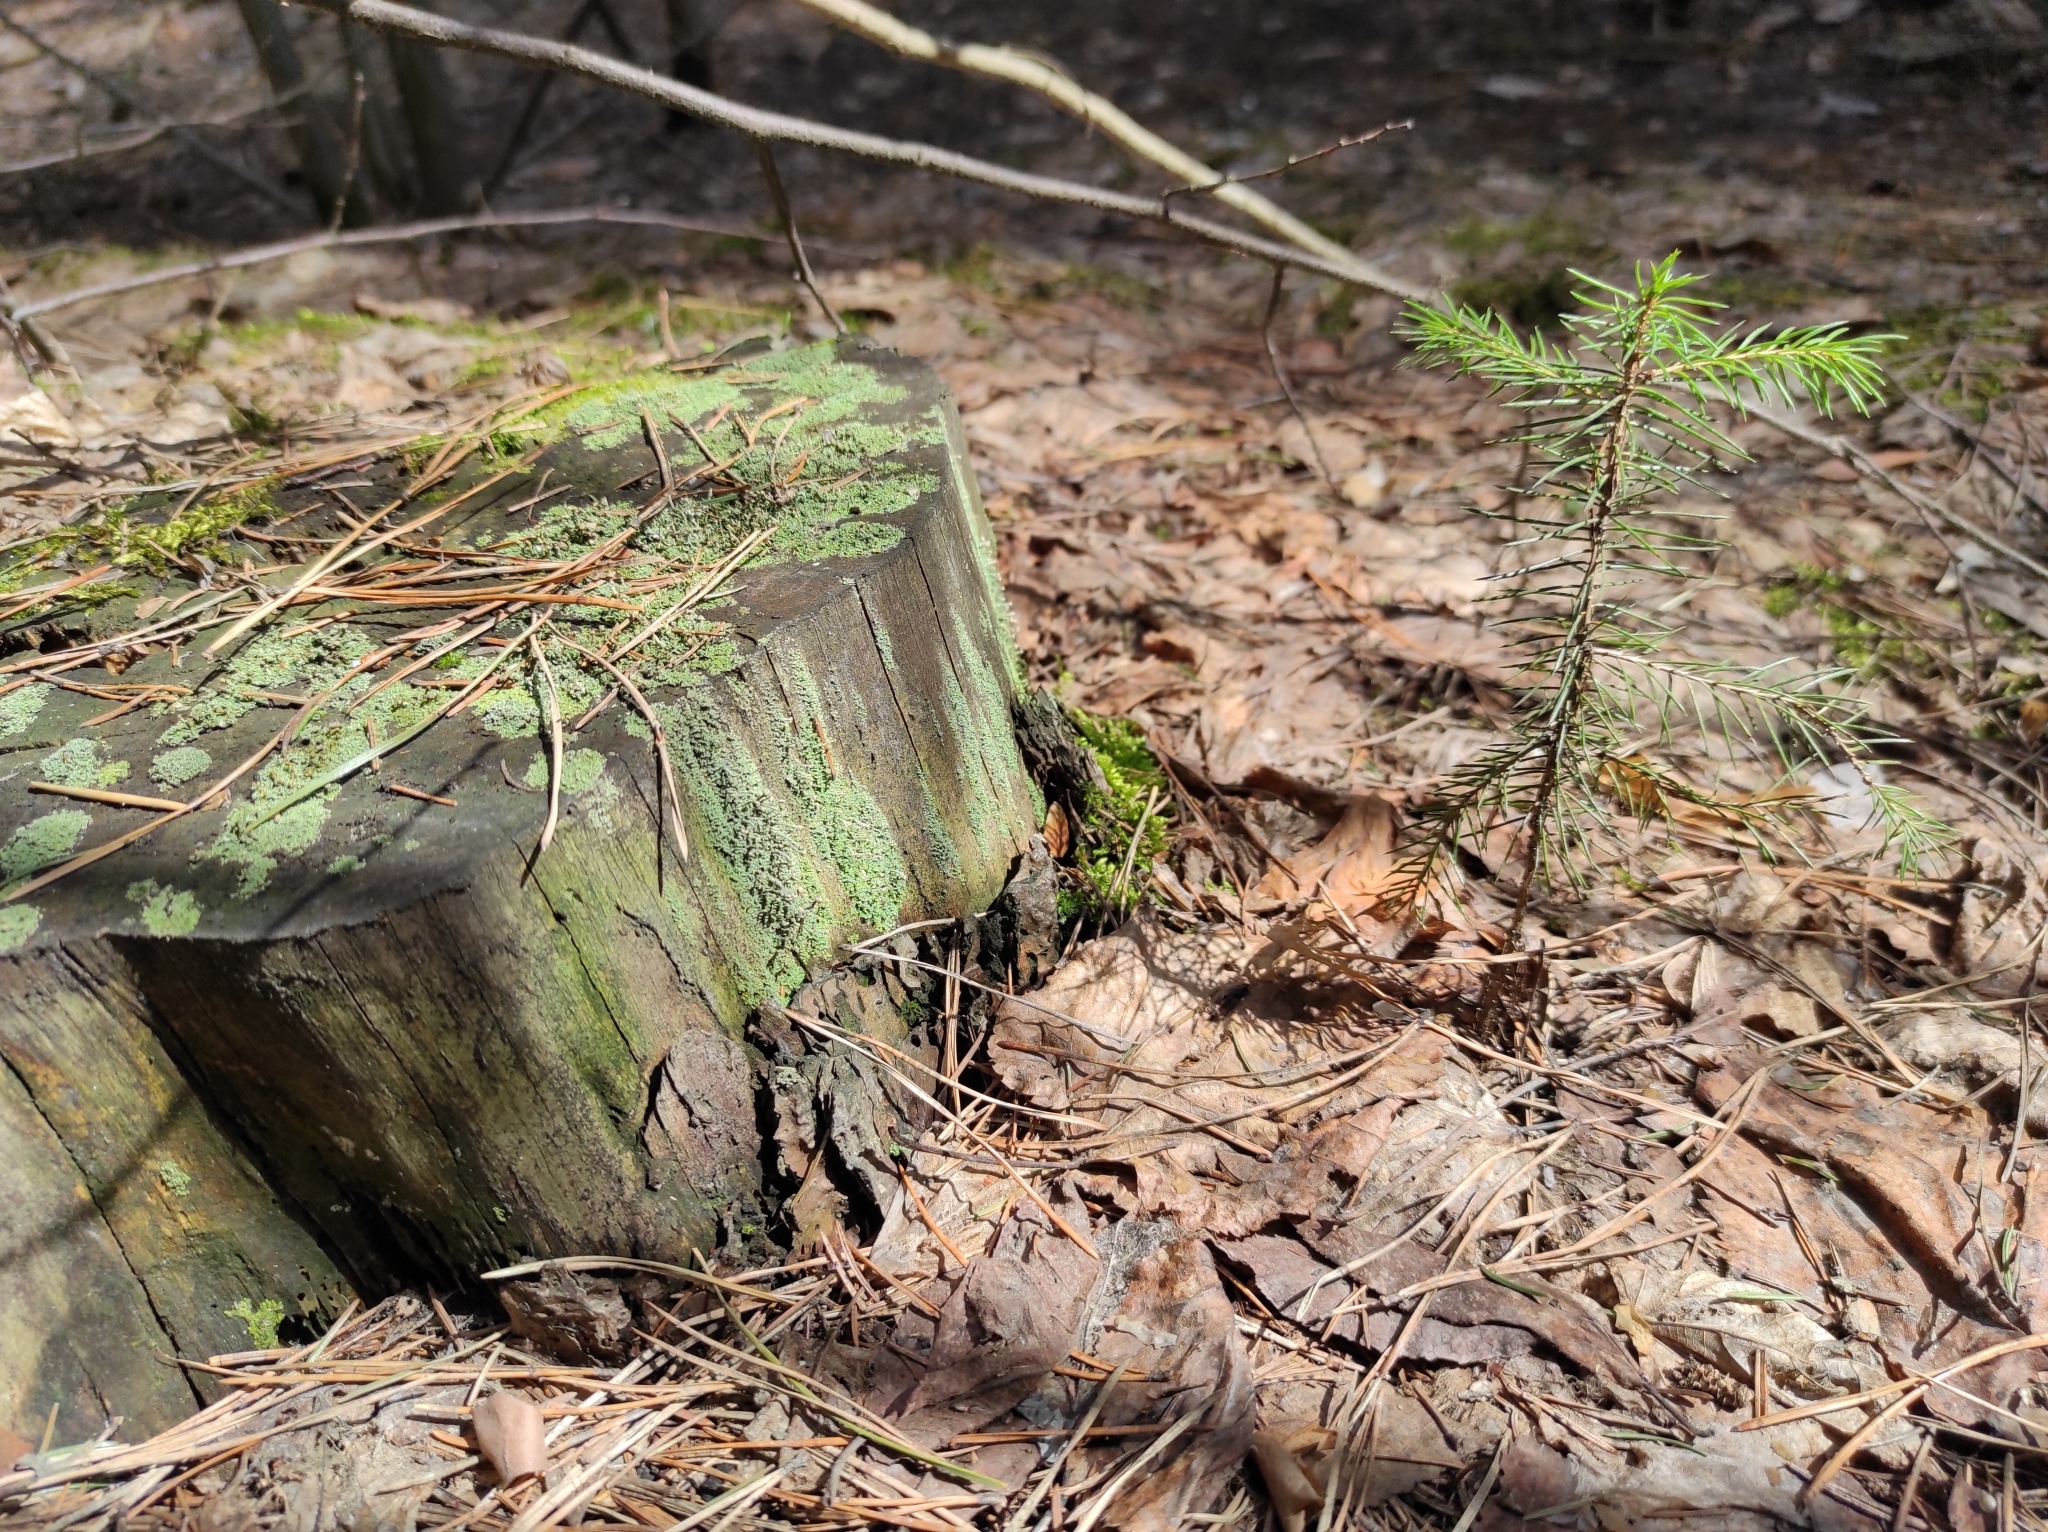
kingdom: Plantae
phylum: Tracheophyta
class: Pinopsida
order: Pinales
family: Pinaceae
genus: Picea
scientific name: Picea obovata
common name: Siberian spruce
